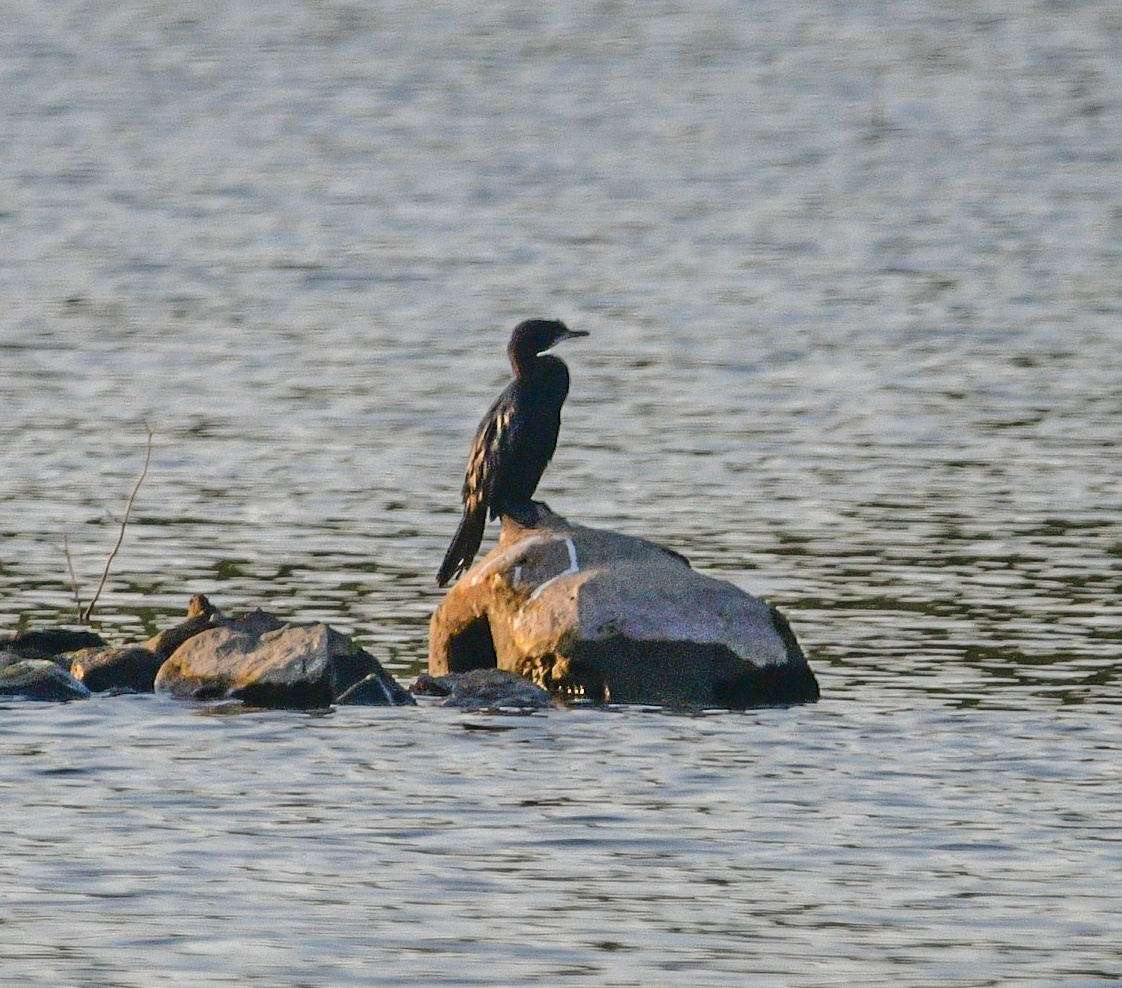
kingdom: Animalia
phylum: Chordata
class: Aves
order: Suliformes
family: Phalacrocoracidae
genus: Microcarbo
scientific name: Microcarbo niger
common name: Little cormorant
